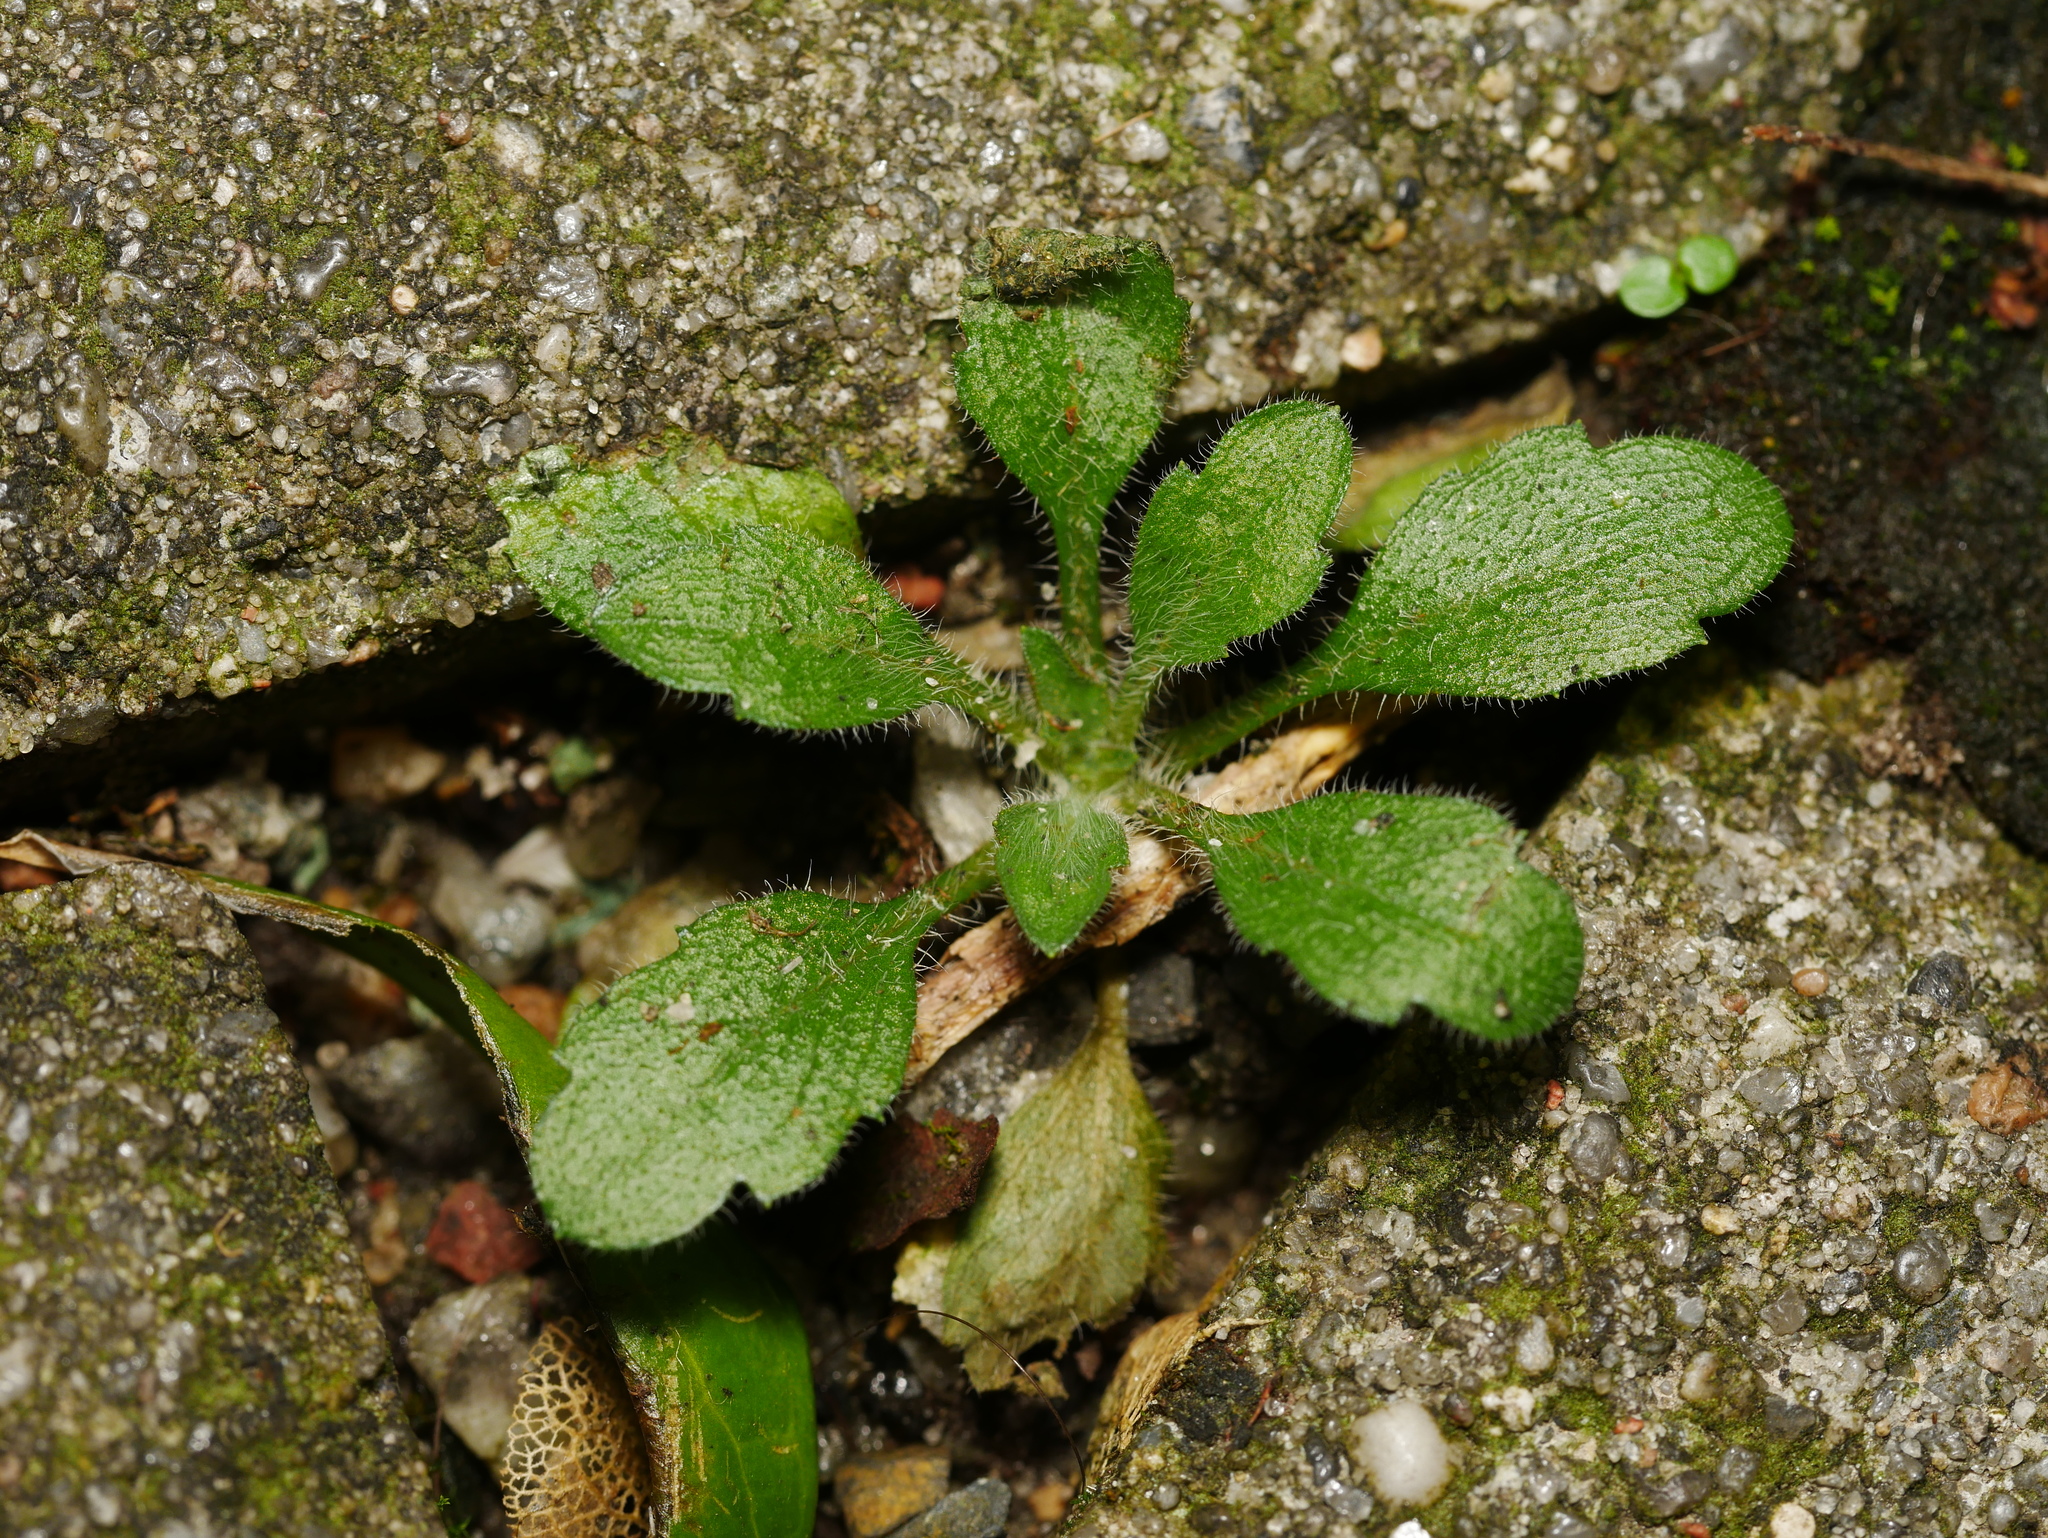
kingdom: Plantae
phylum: Tracheophyta
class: Magnoliopsida
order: Asterales
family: Asteraceae
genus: Erigeron
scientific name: Erigeron canadensis
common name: Canadian fleabane
